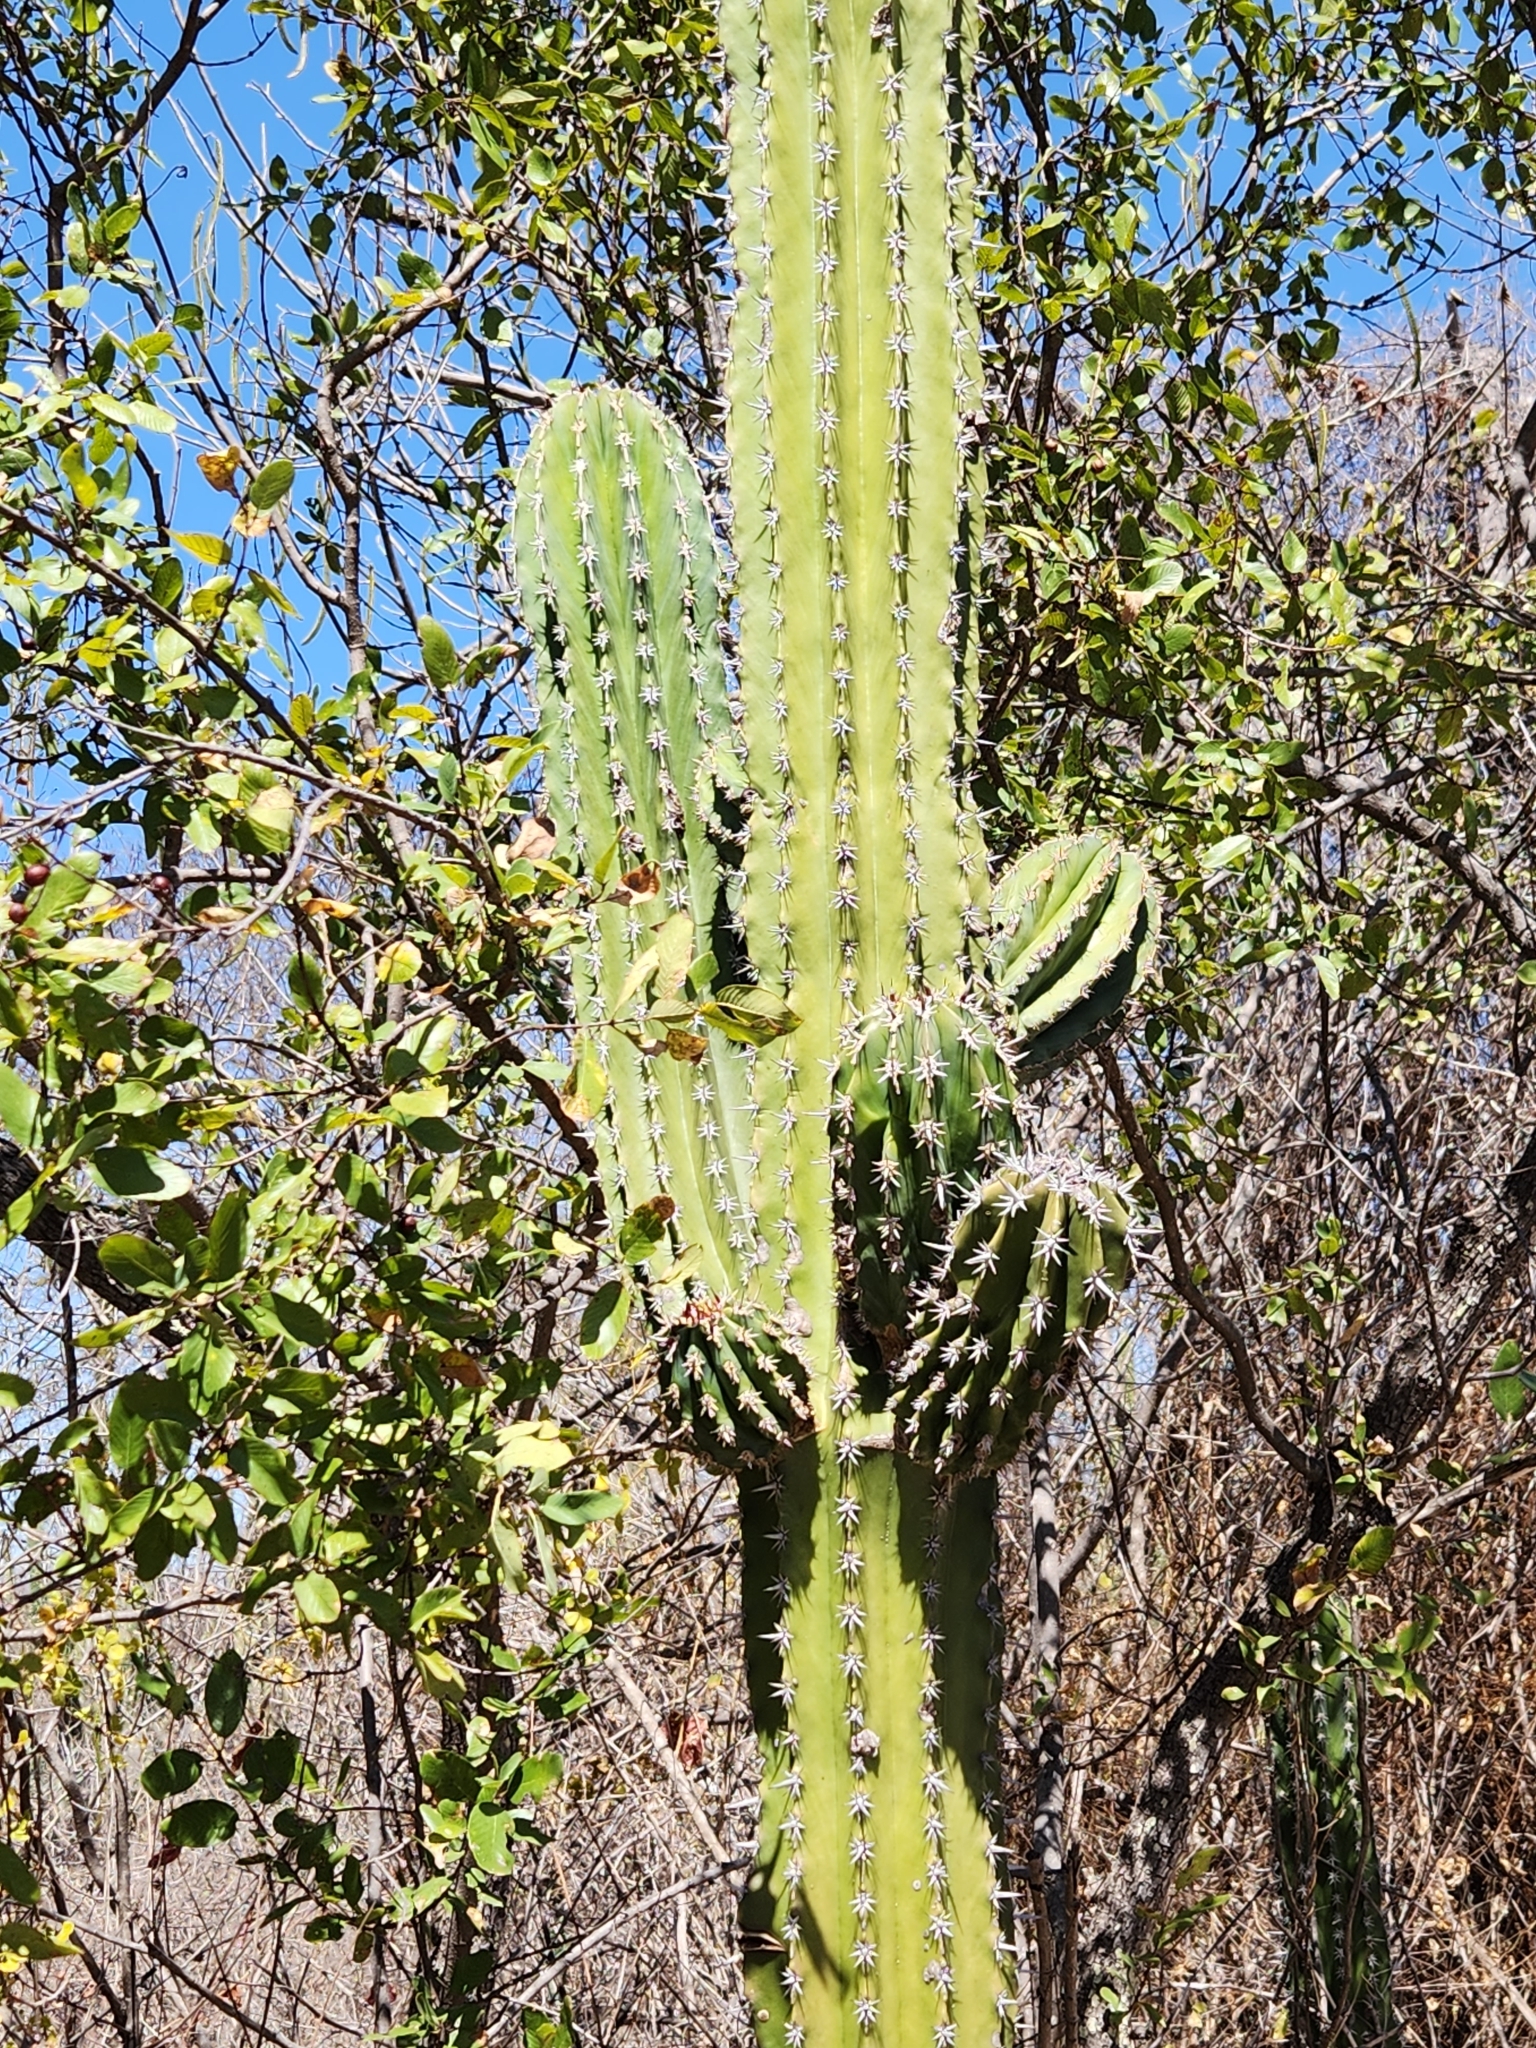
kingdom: Plantae
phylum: Tracheophyta
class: Magnoliopsida
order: Caryophyllales
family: Cactaceae
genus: Pachycereus
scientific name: Pachycereus pecten-aboriginum
